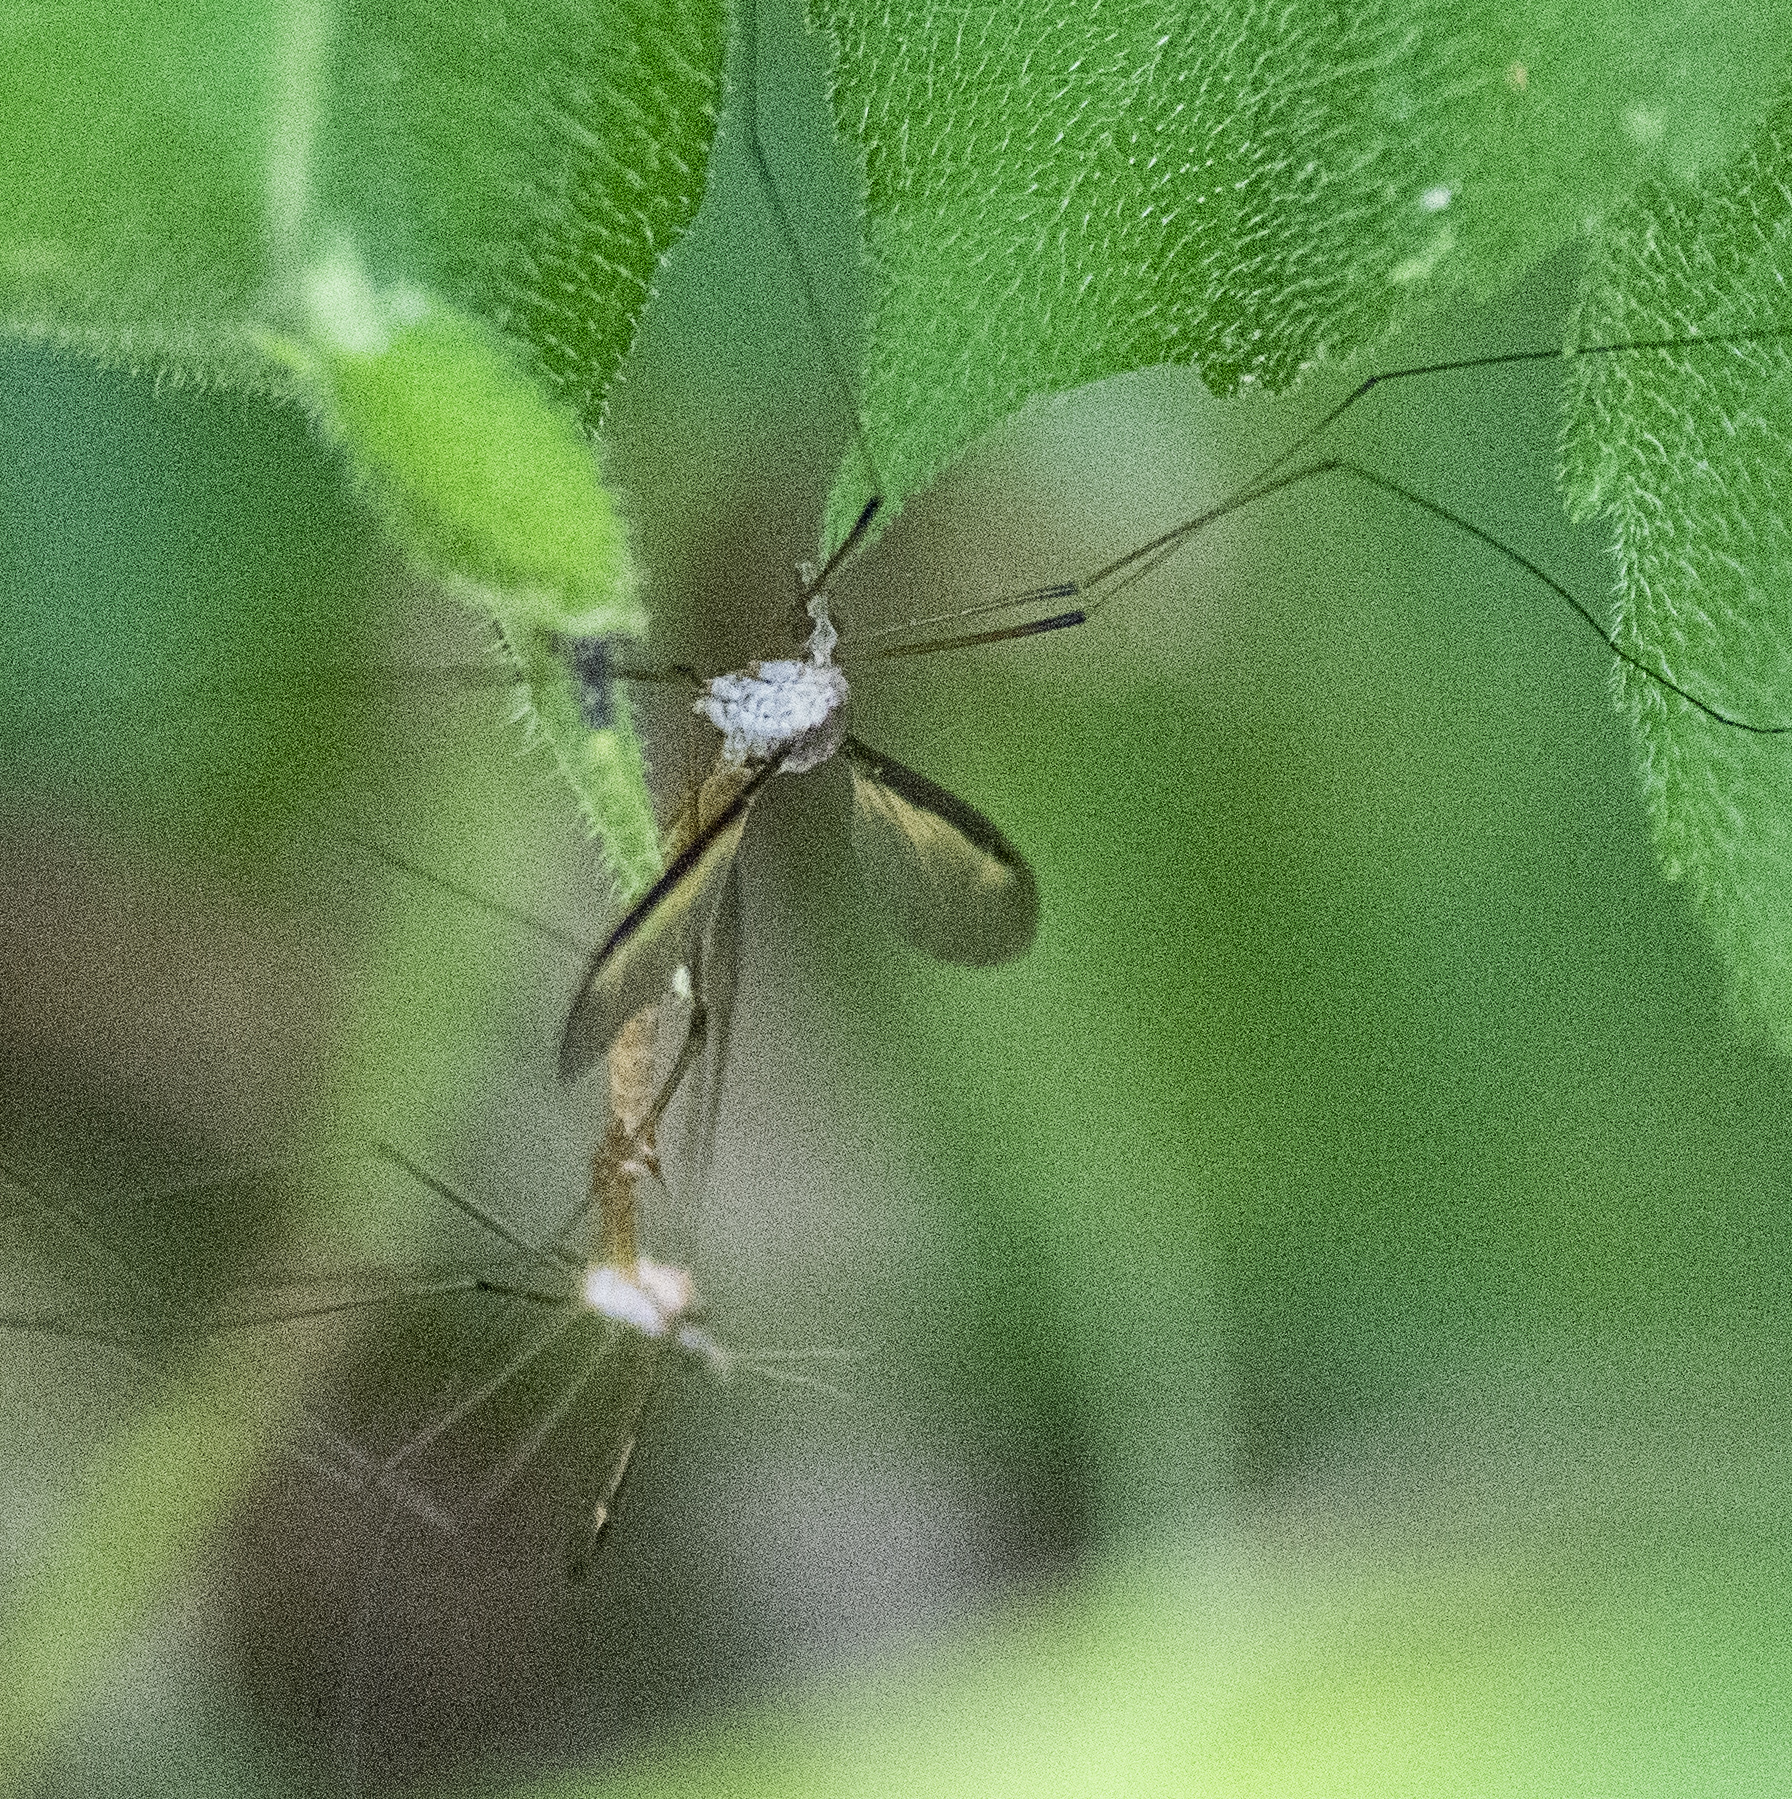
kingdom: Animalia
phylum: Arthropoda
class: Insecta
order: Diptera
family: Tipulidae
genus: Tipula
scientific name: Tipula sayi
